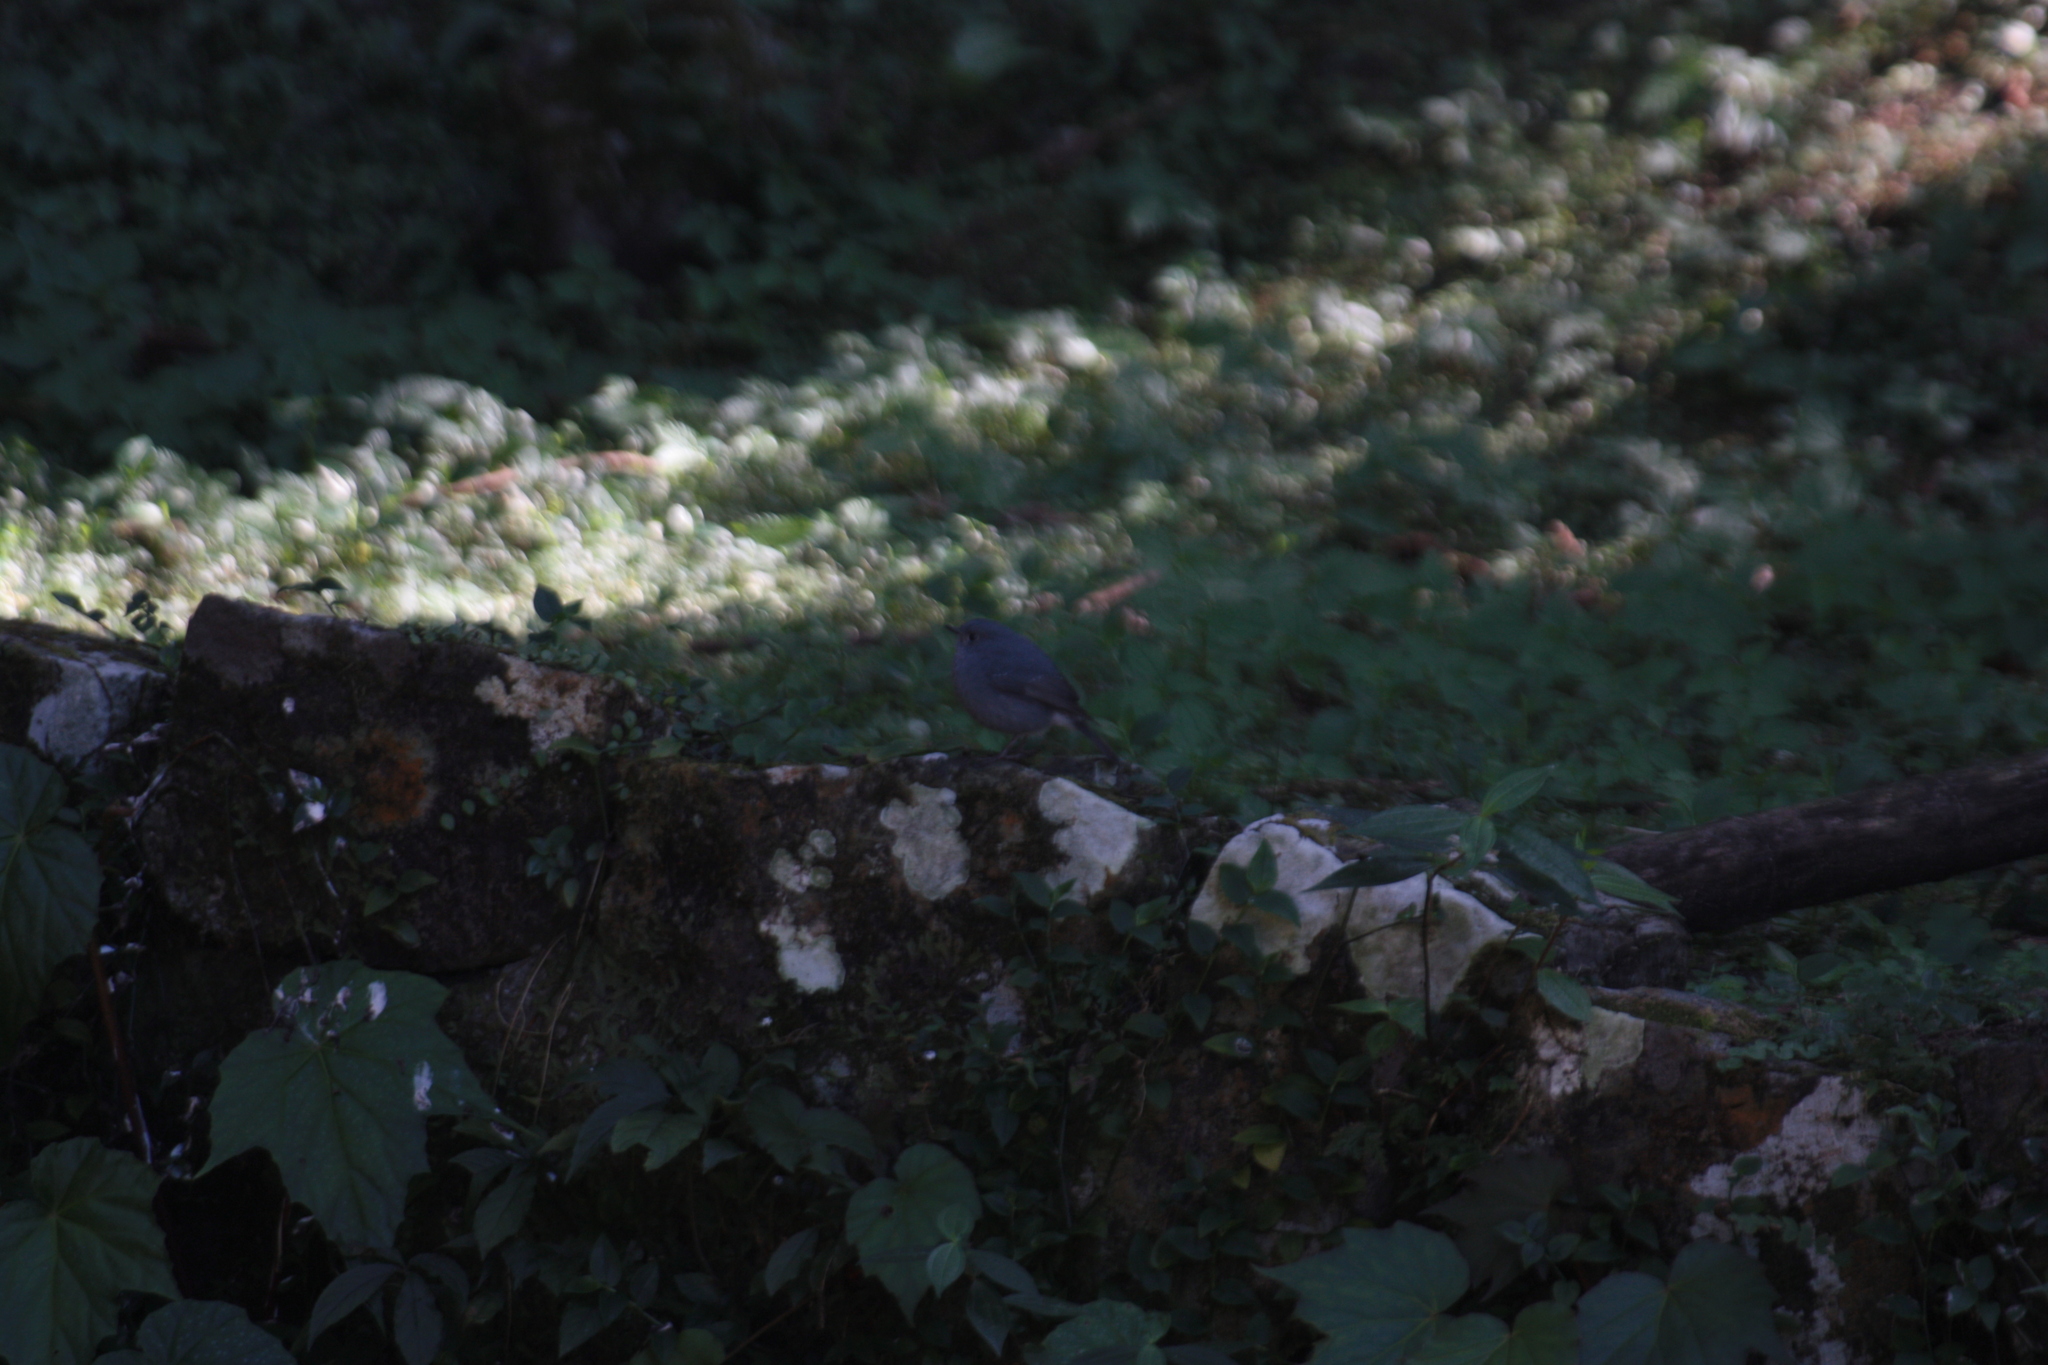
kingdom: Animalia
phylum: Chordata
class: Aves
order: Passeriformes
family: Muscicapidae
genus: Rhyacornis
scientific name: Rhyacornis fuliginosa
